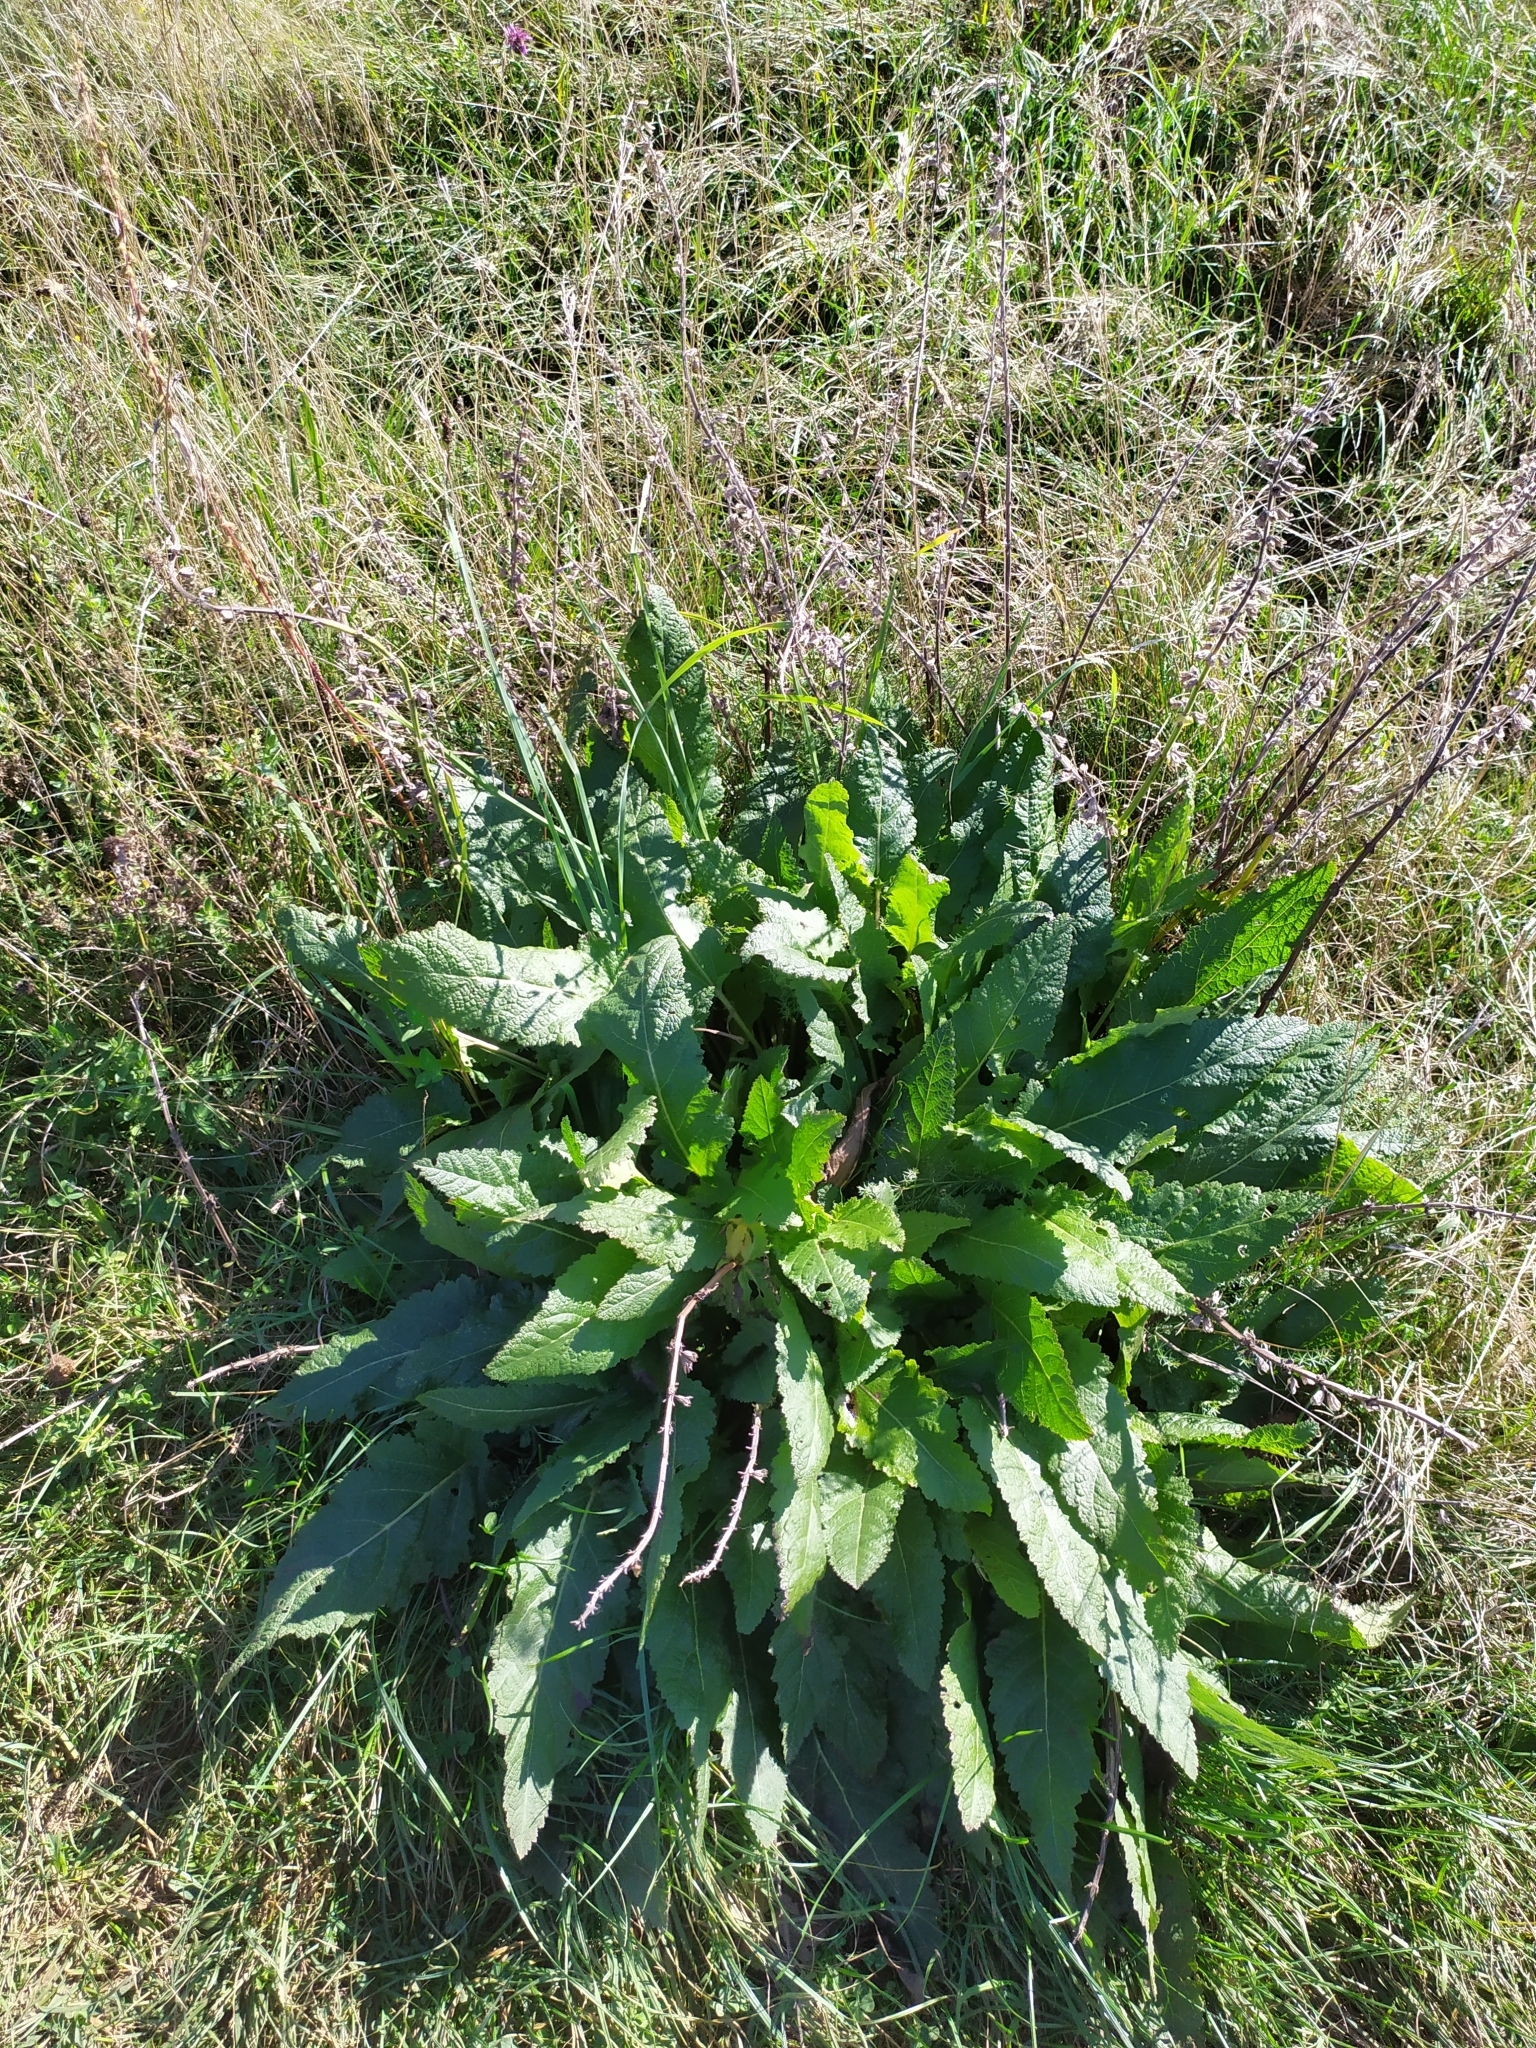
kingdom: Plantae
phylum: Tracheophyta
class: Magnoliopsida
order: Lamiales
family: Lamiaceae
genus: Salvia
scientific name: Salvia pratensis
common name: Meadow sage
